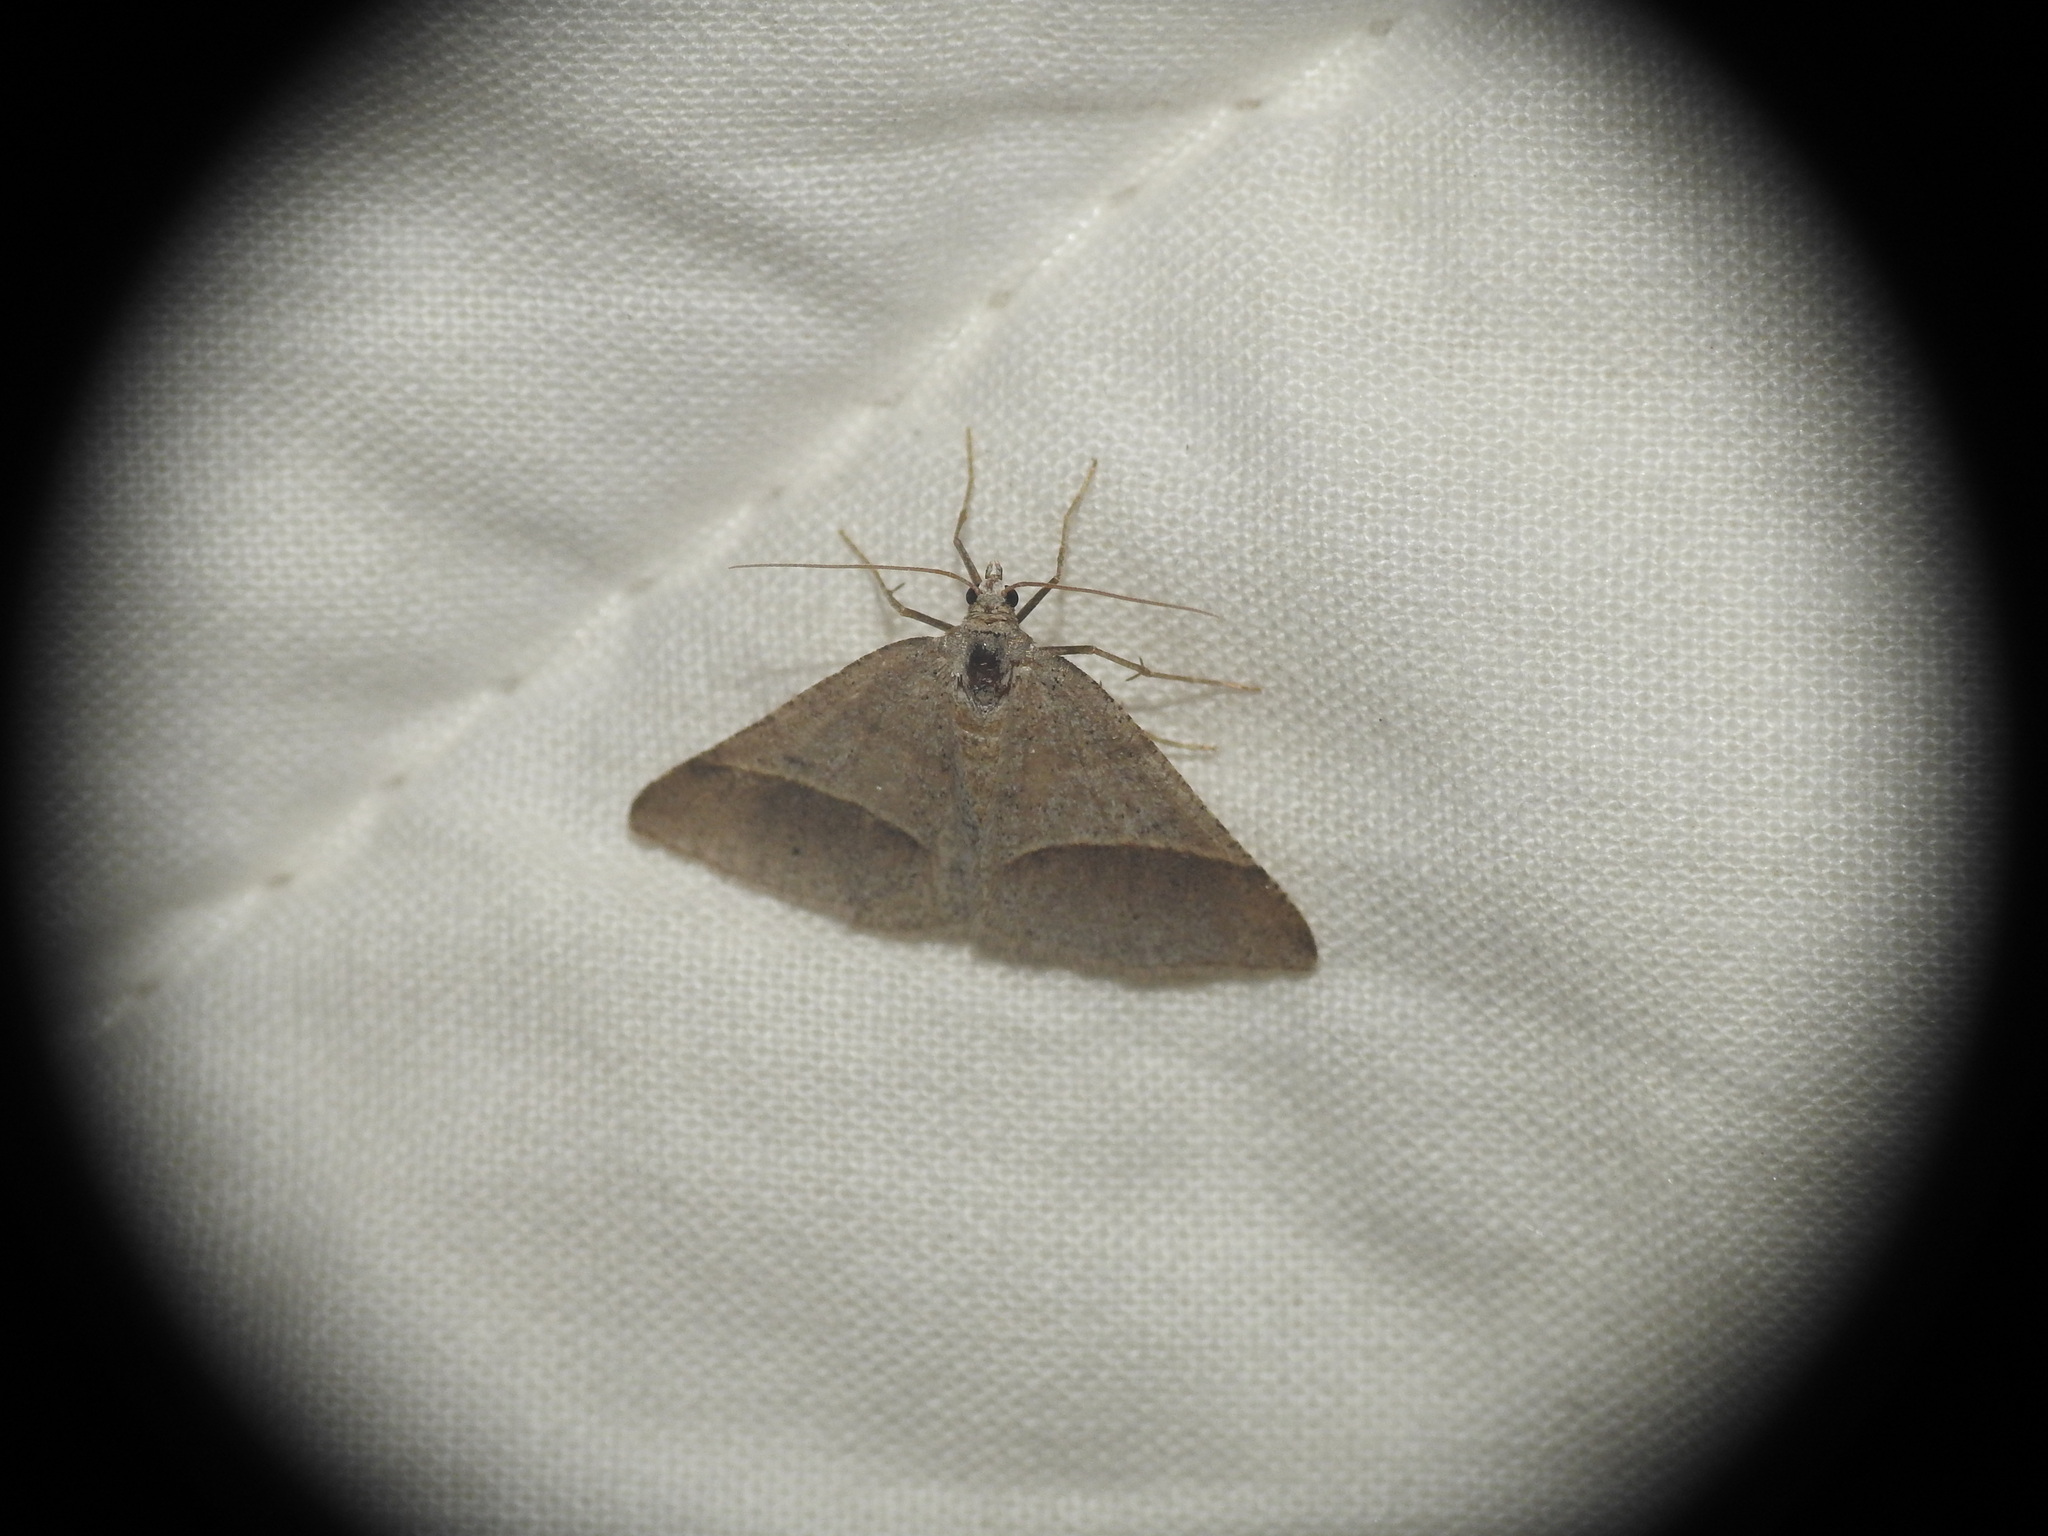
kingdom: Animalia
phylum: Arthropoda
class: Insecta
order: Lepidoptera
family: Pterophoridae
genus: Pterophorus
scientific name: Pterophorus Petrophora convergata
